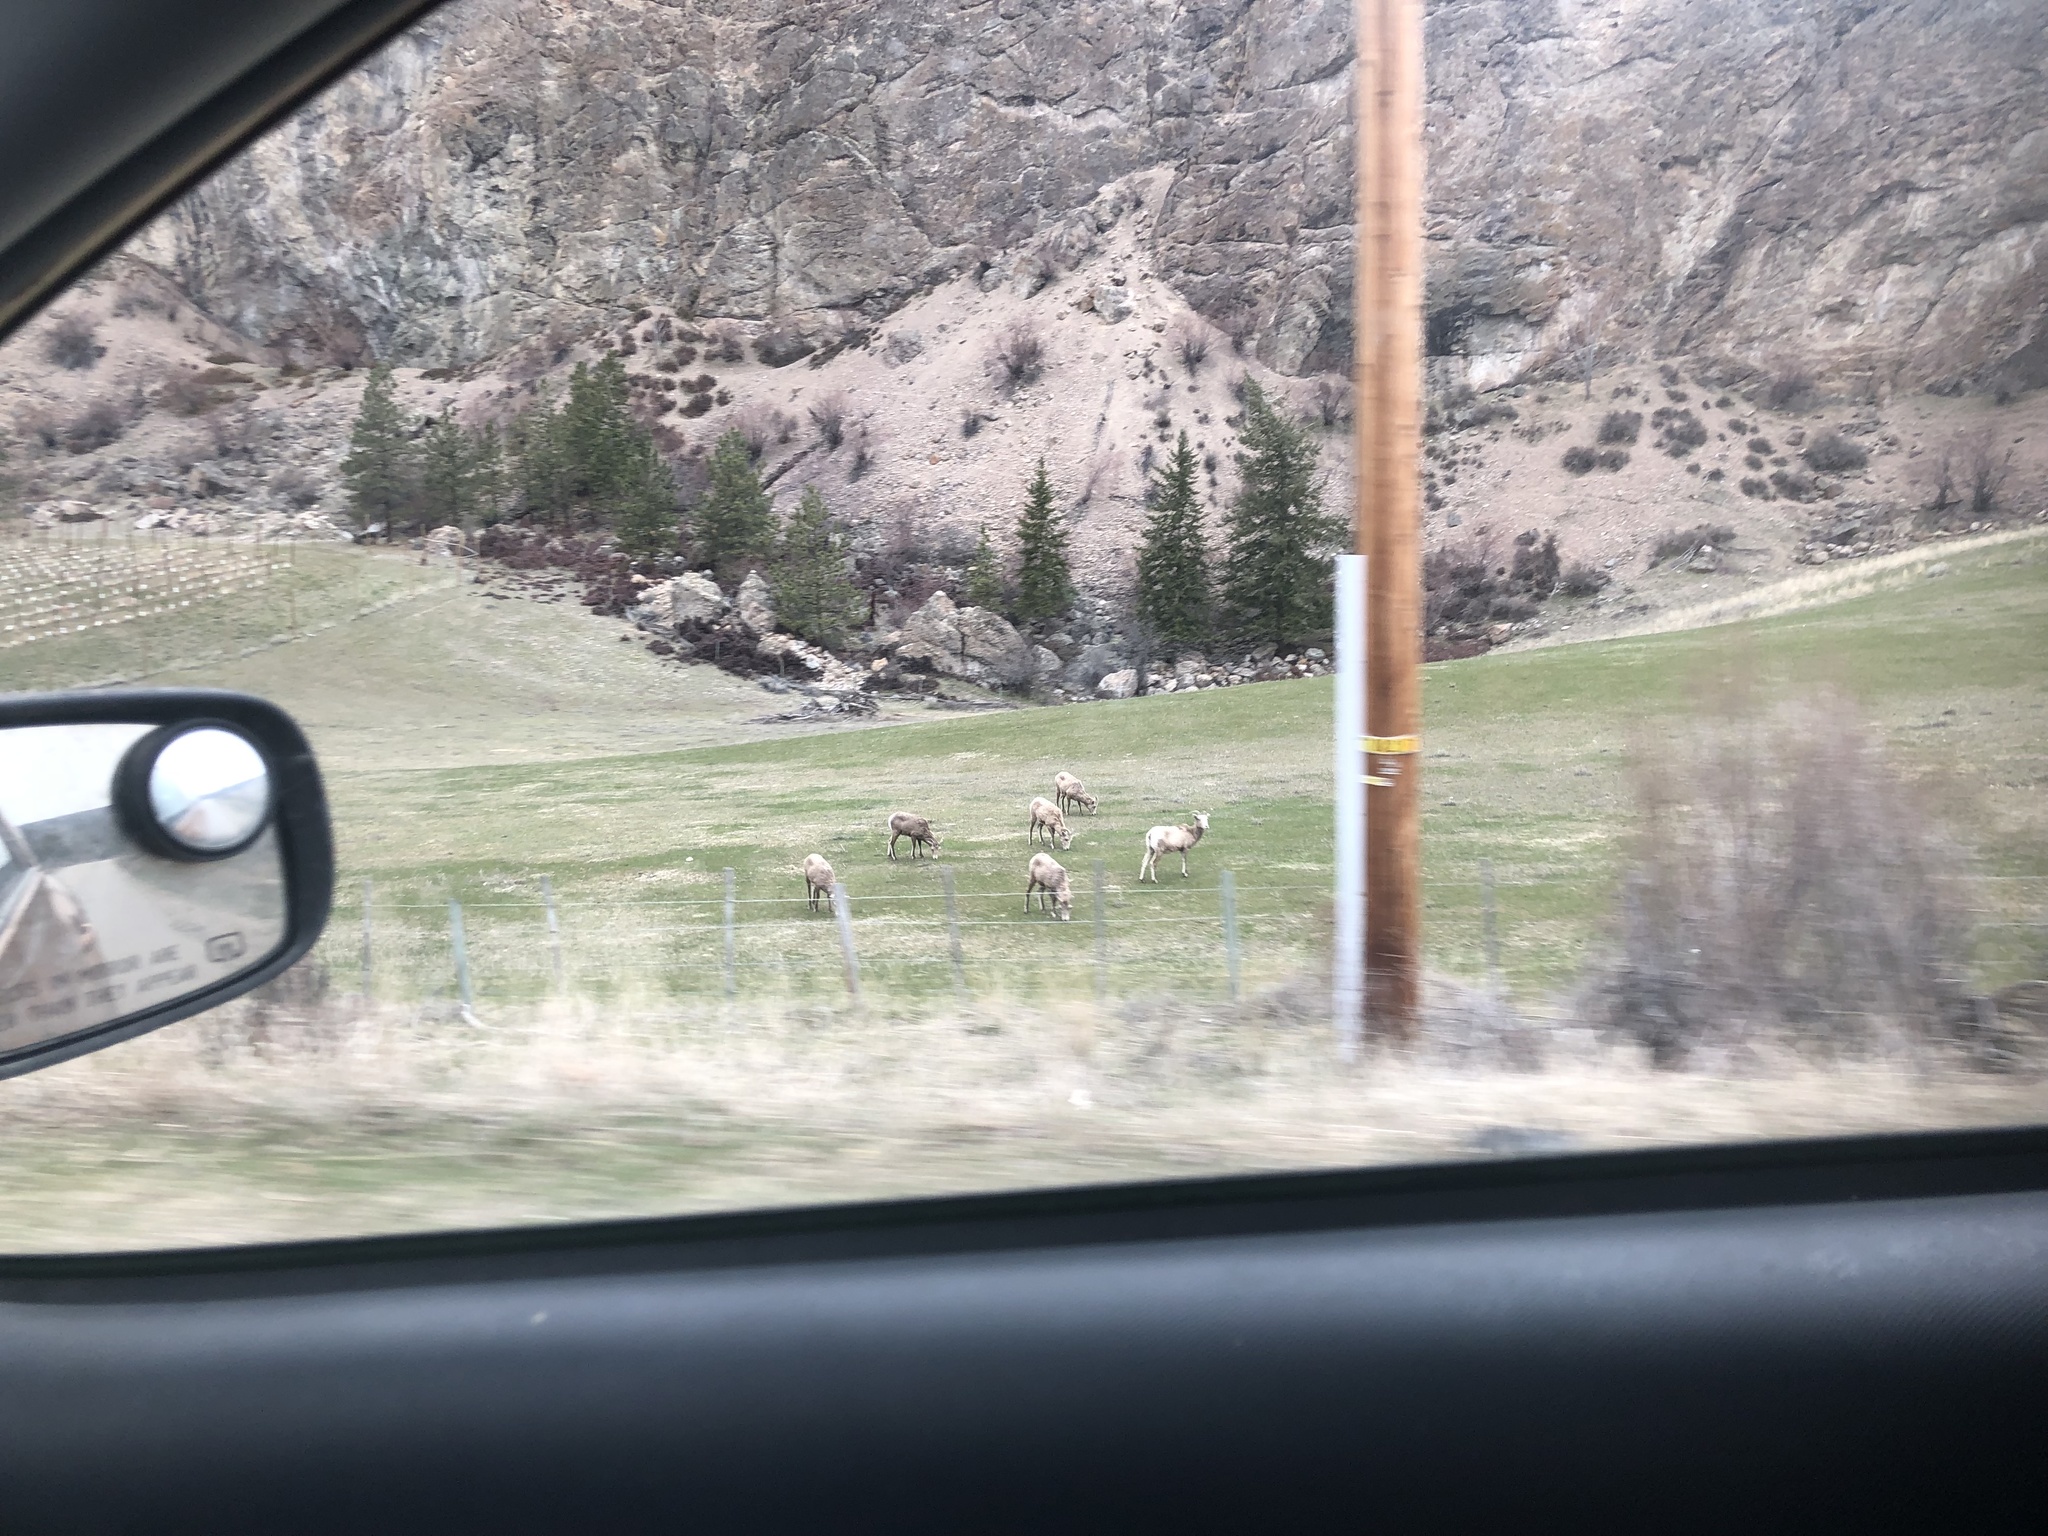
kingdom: Animalia
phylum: Chordata
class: Mammalia
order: Artiodactyla
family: Bovidae
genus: Ovis
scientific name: Ovis canadensis
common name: Bighorn sheep
